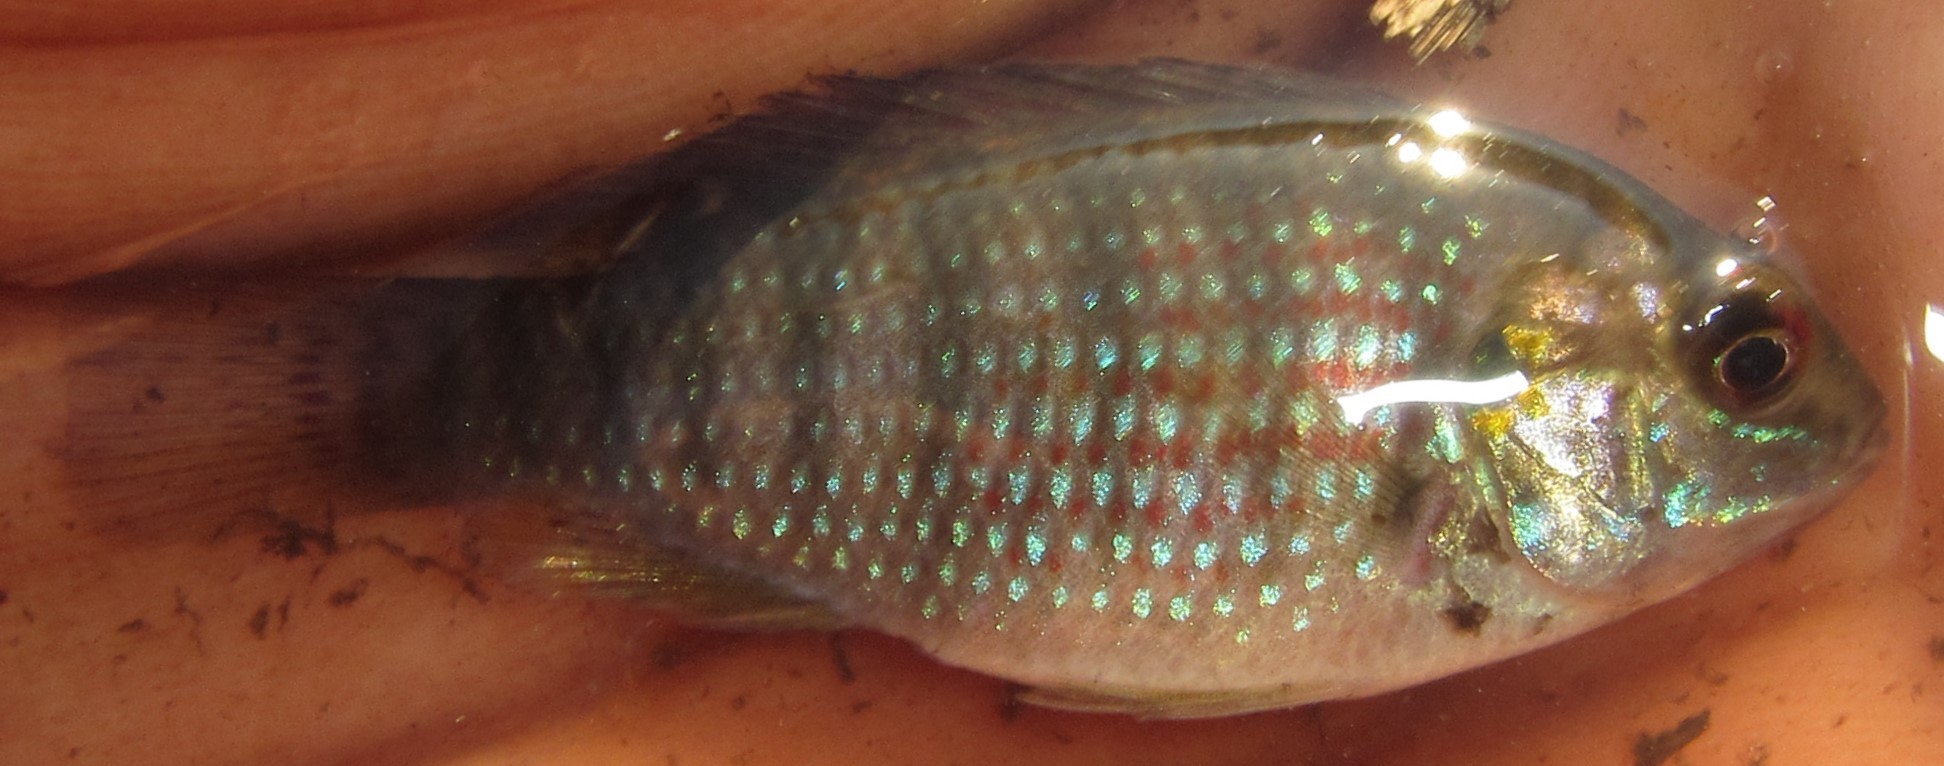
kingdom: Animalia
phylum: Chordata
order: Perciformes
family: Cichlidae
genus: Tilapia
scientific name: Tilapia ruweti
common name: Okavango tilapia
